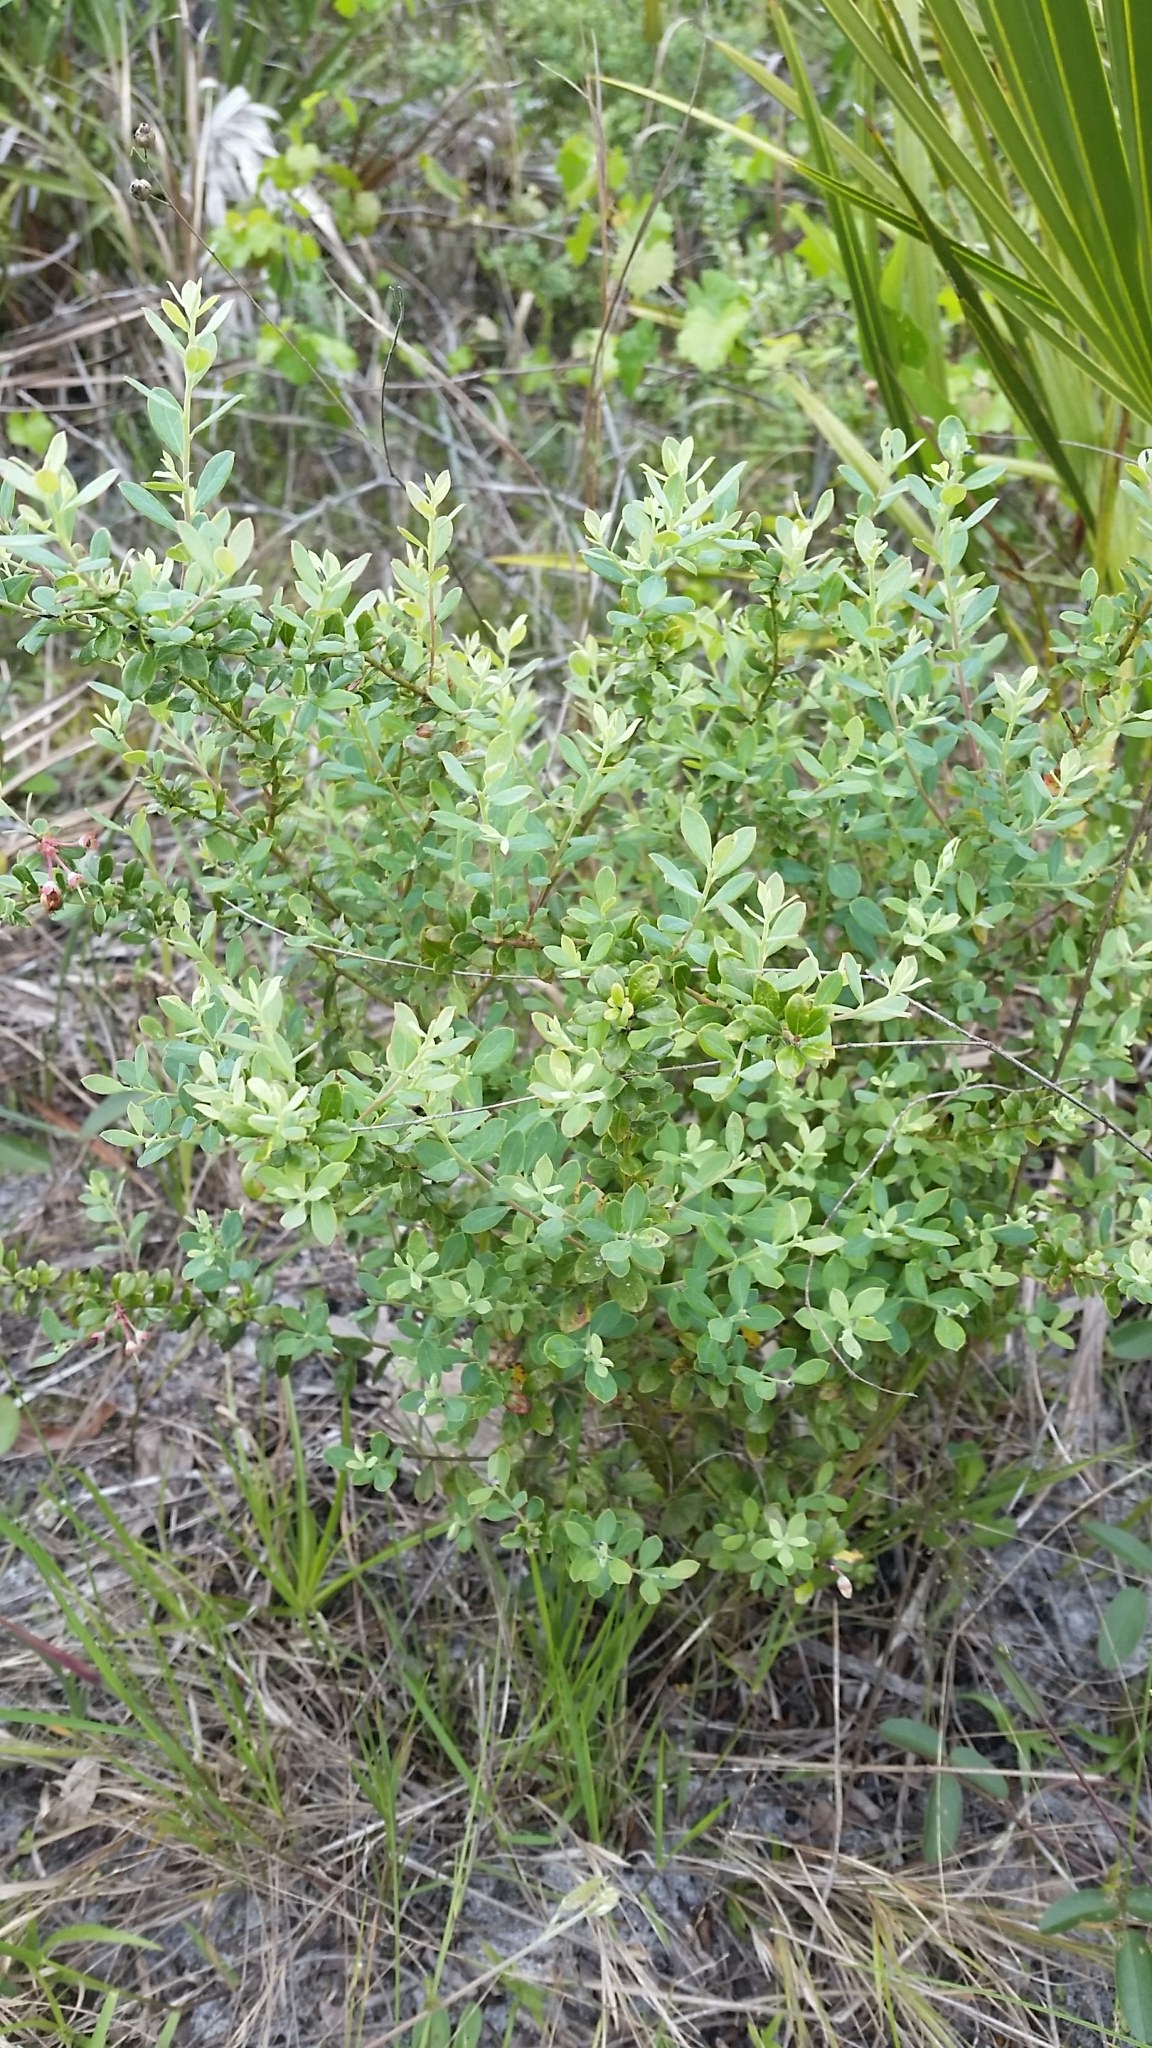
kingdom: Plantae
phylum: Tracheophyta
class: Magnoliopsida
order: Ericales
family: Ericaceae
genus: Vaccinium
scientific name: Vaccinium darrowii
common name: Darrow's blueberry
